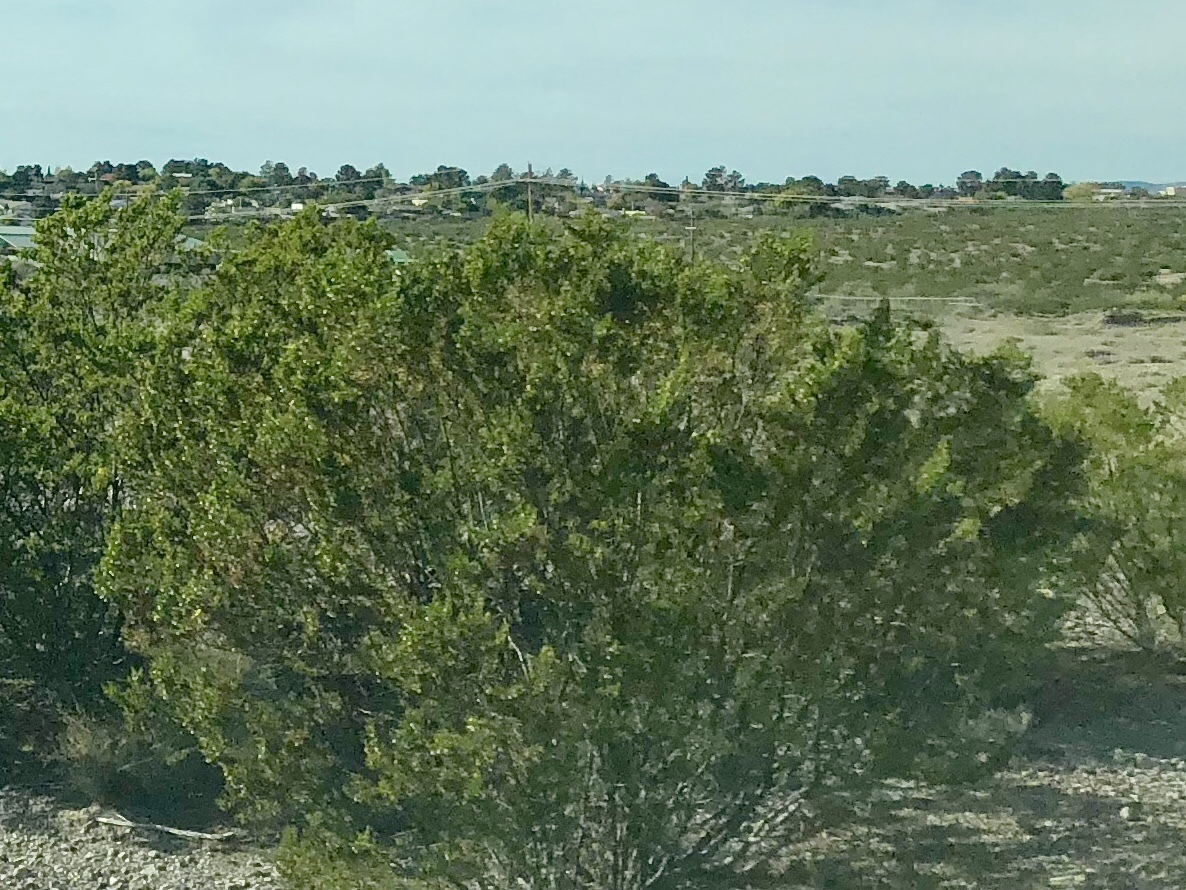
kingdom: Plantae
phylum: Tracheophyta
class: Magnoliopsida
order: Zygophyllales
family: Zygophyllaceae
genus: Larrea
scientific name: Larrea tridentata
